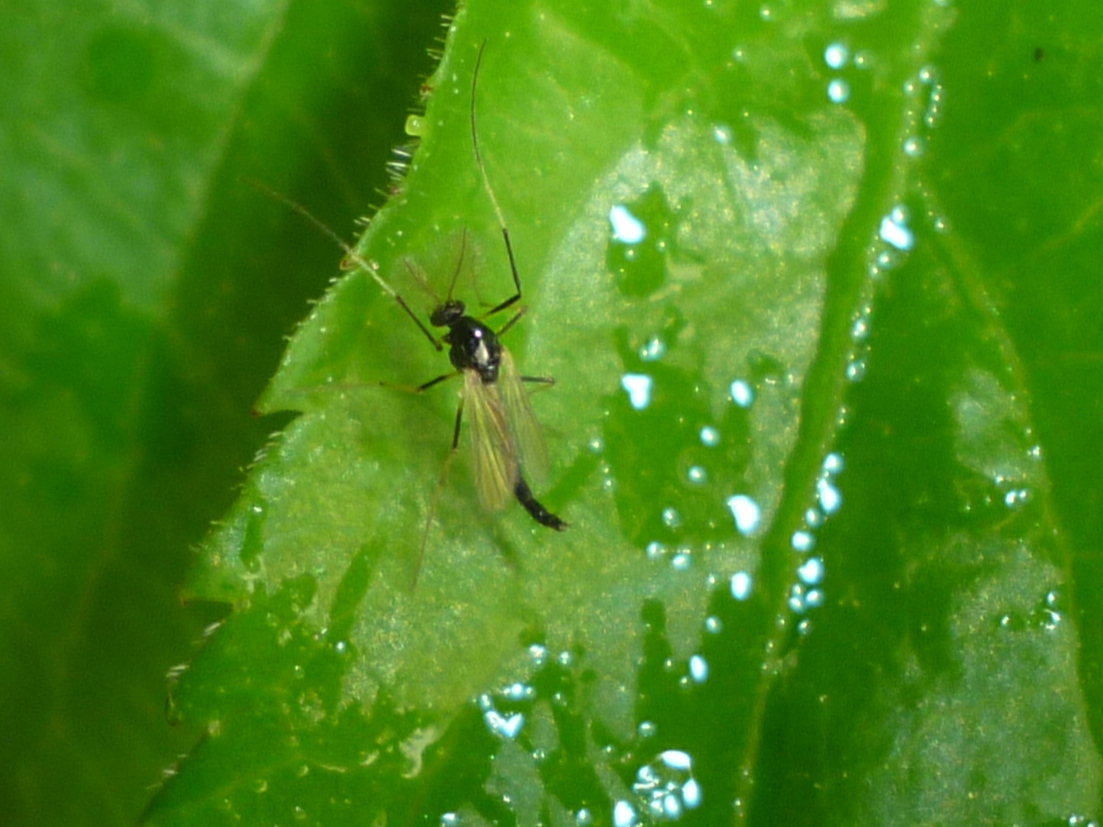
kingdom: Animalia
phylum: Arthropoda
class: Insecta
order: Diptera
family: Chironomidae
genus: Paratendipes
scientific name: Paratendipes albimanus
